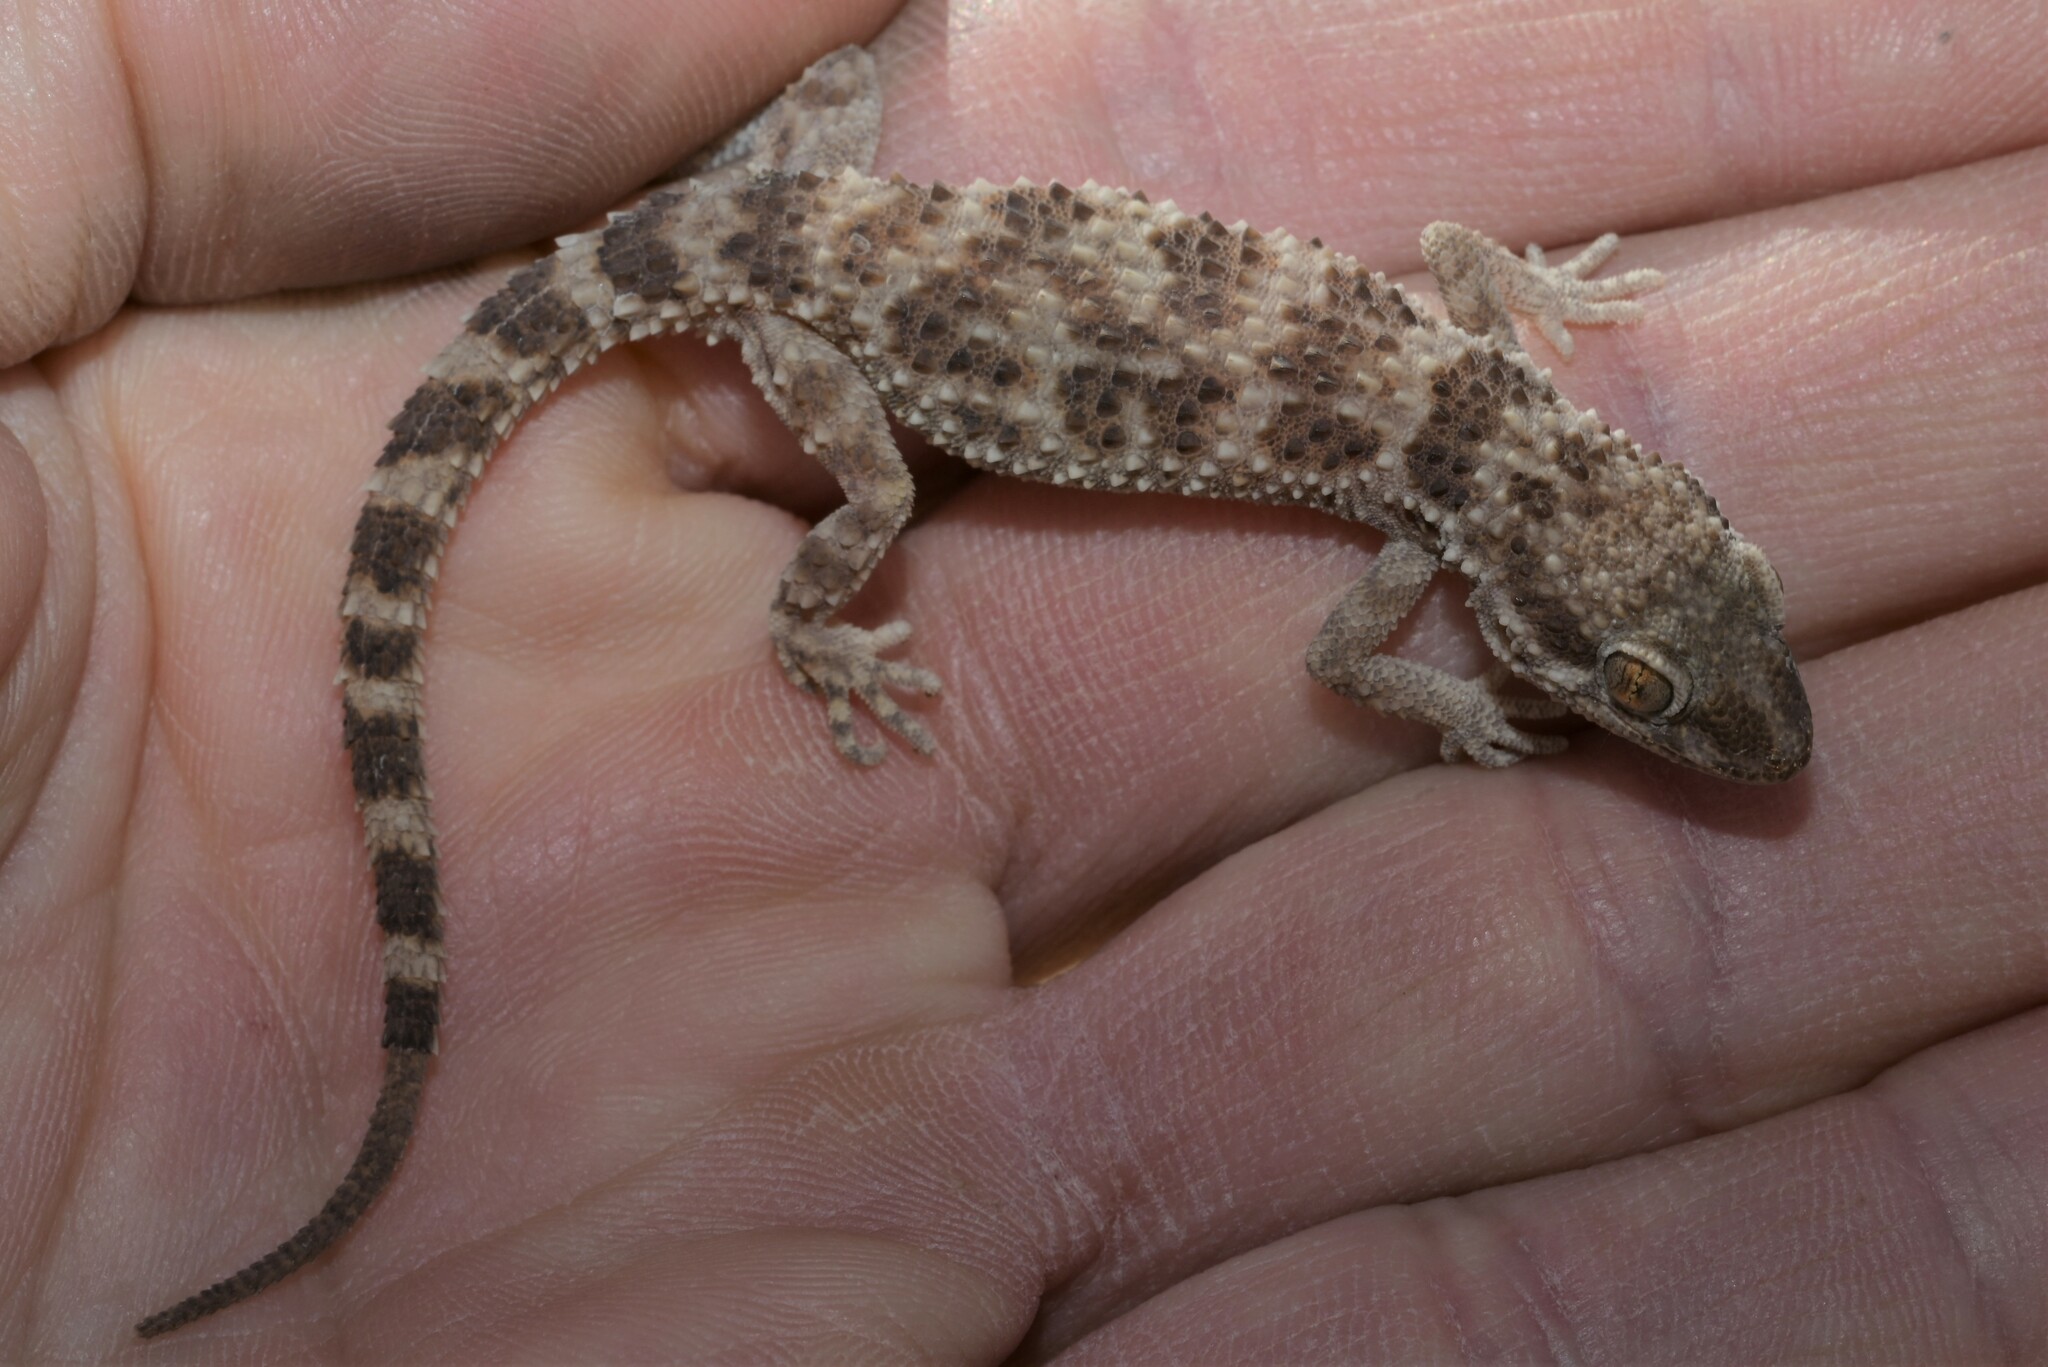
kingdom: Animalia
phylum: Chordata
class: Squamata
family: Gekkonidae
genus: Bunopus
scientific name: Bunopus tuberculatus
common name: Southern tuberculated gecko
